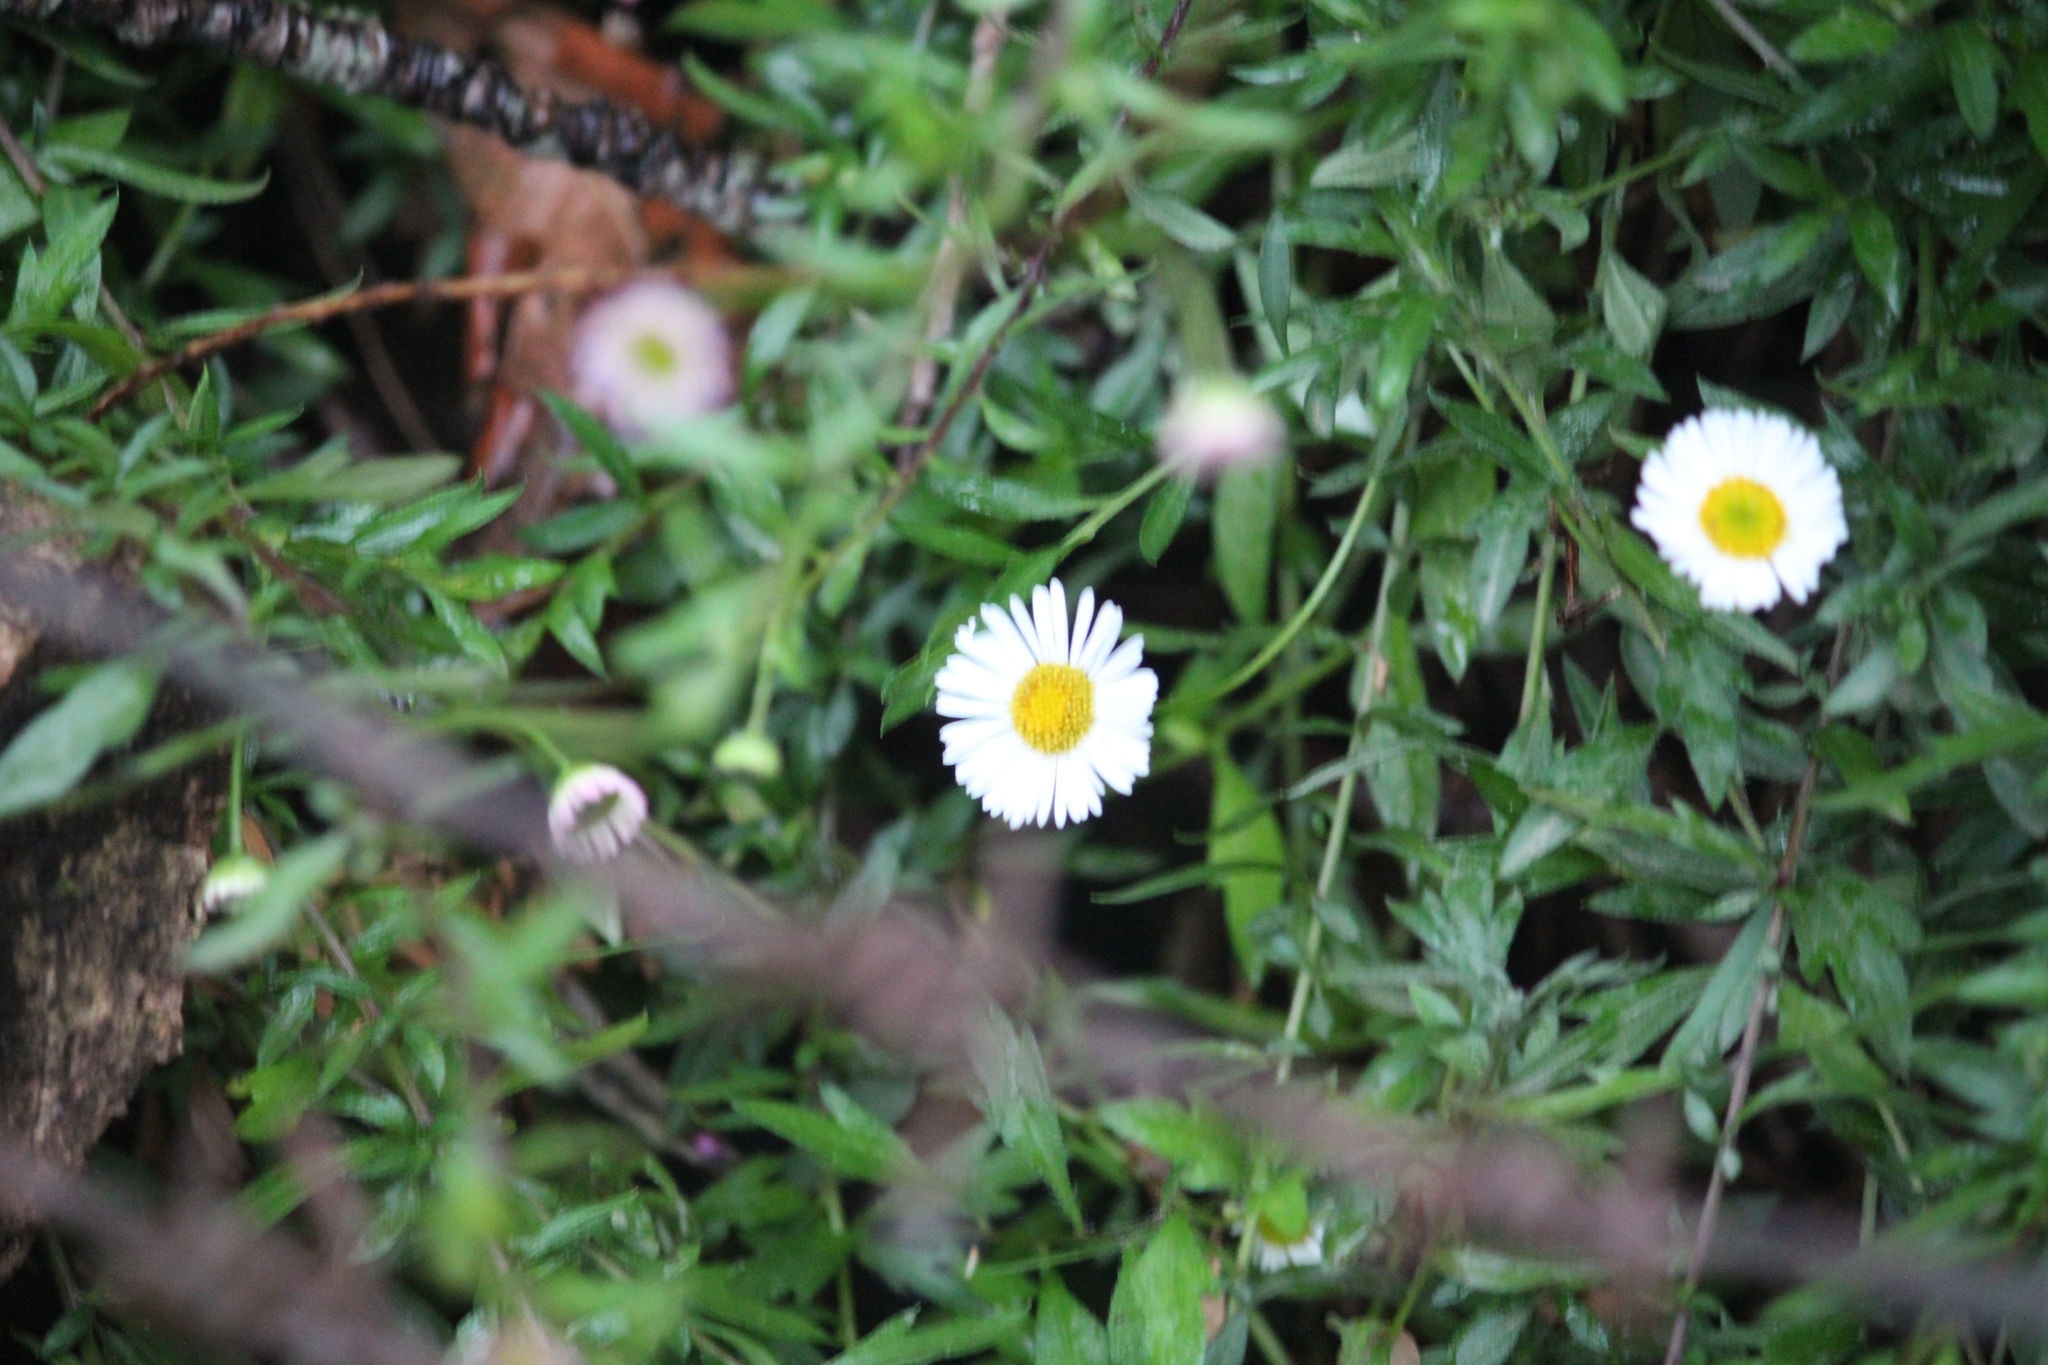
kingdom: Plantae
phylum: Tracheophyta
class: Magnoliopsida
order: Asterales
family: Asteraceae
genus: Erigeron
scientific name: Erigeron karvinskianus
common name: Mexican fleabane
